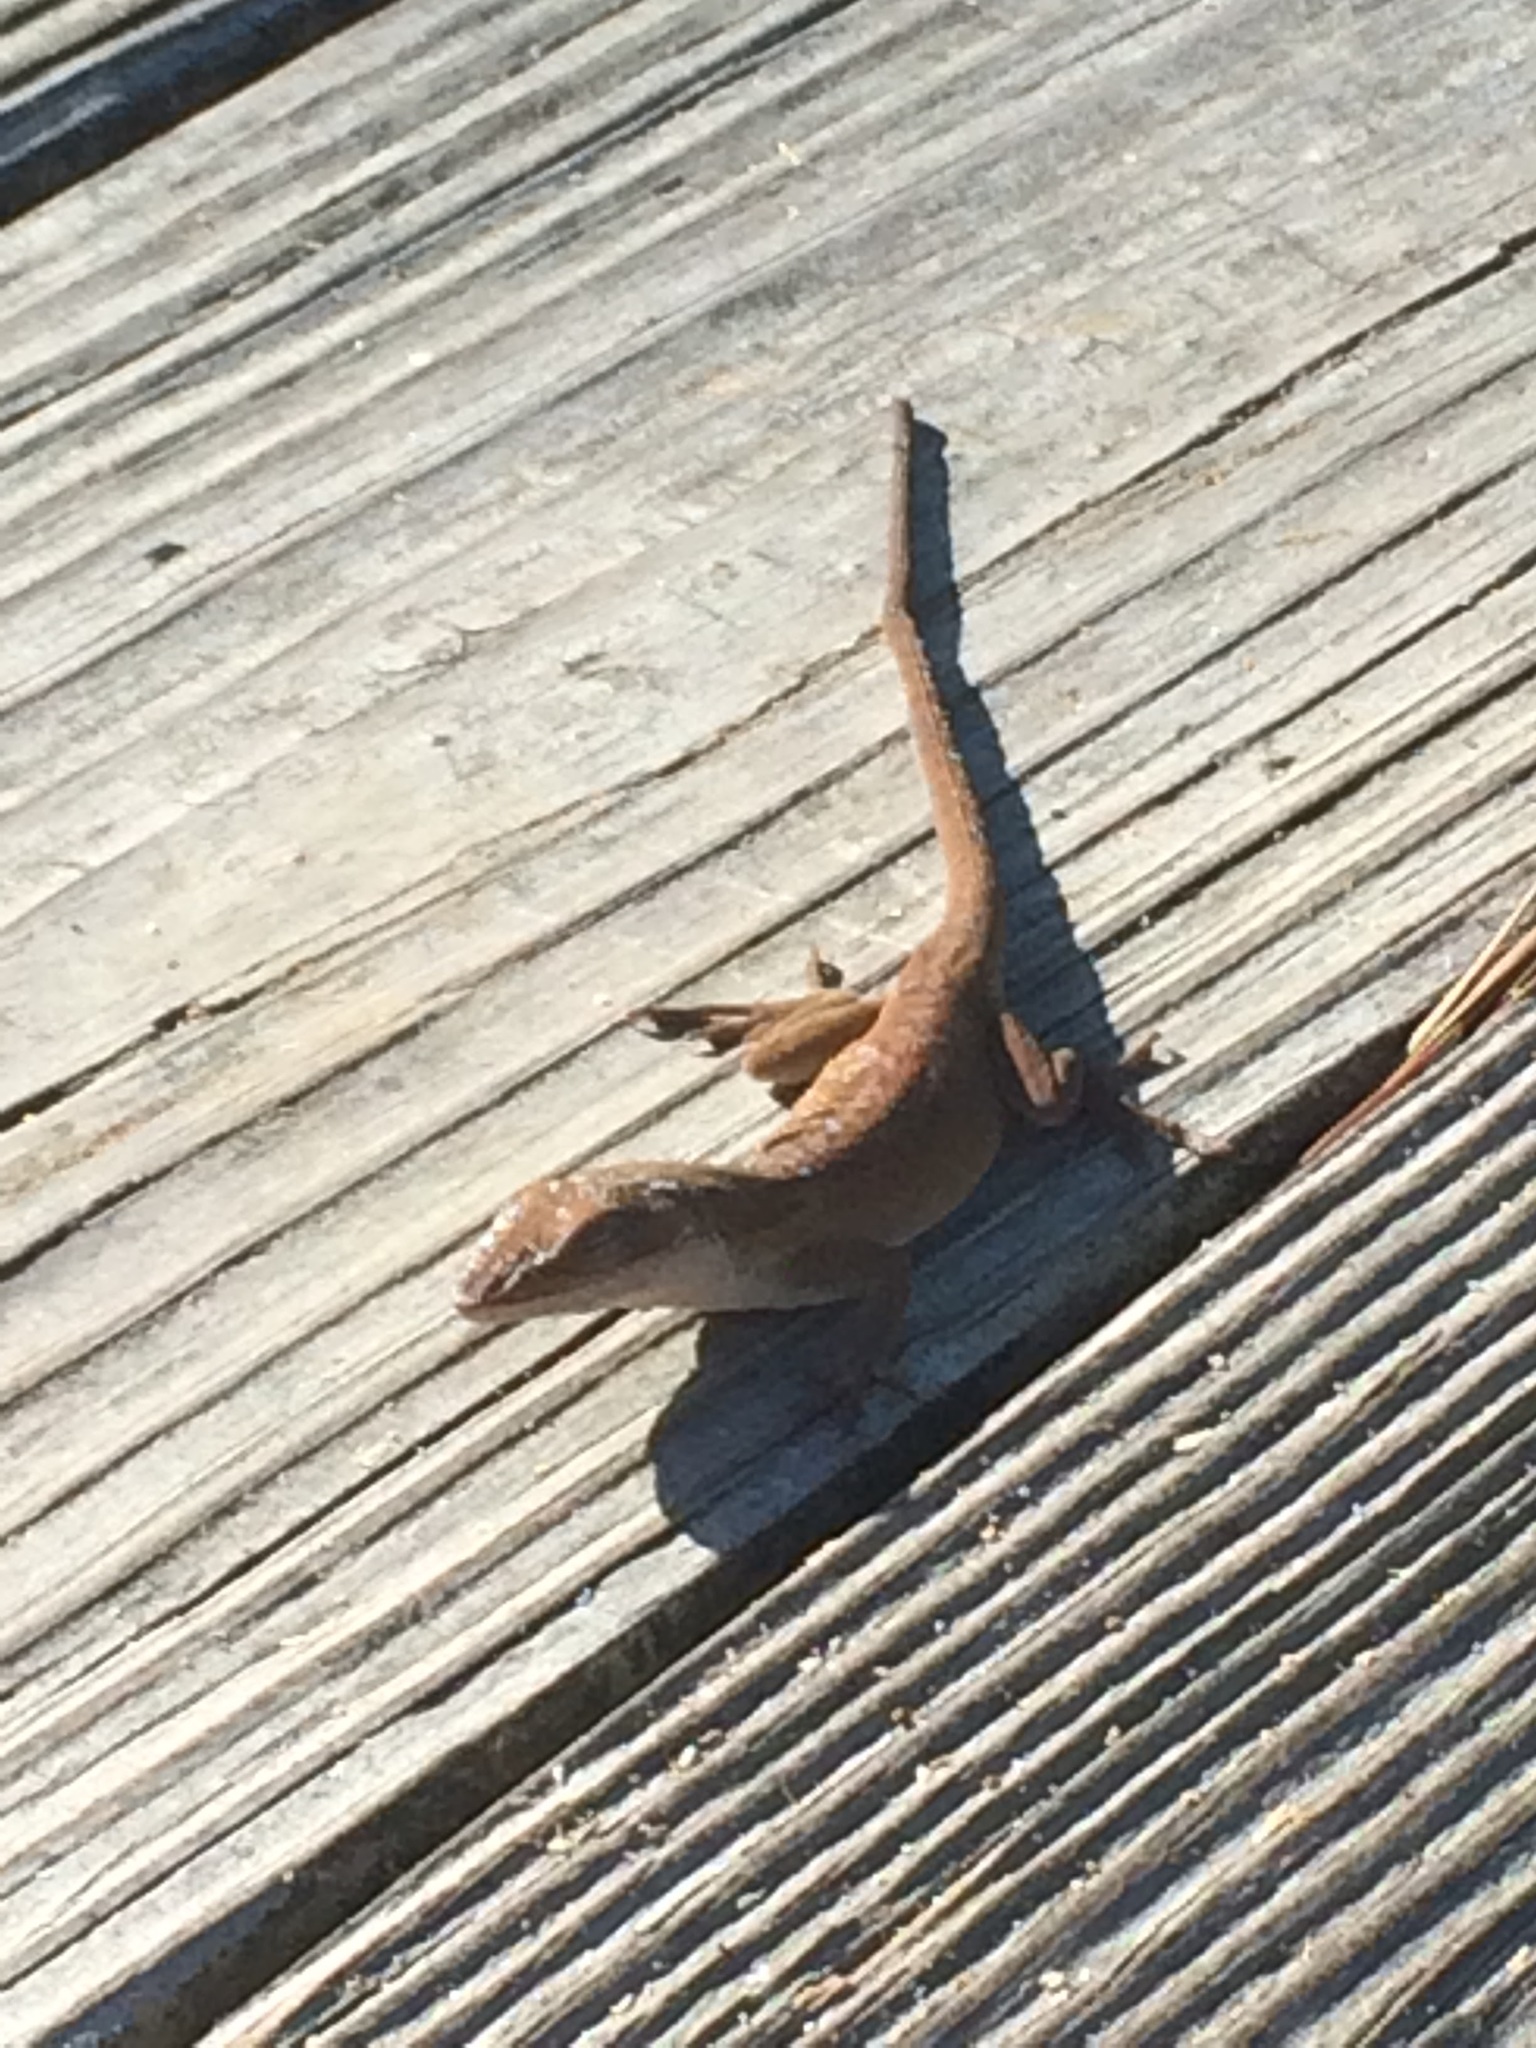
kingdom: Animalia
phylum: Chordata
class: Squamata
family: Dactyloidae
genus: Anolis
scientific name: Anolis carolinensis
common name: Green anole
